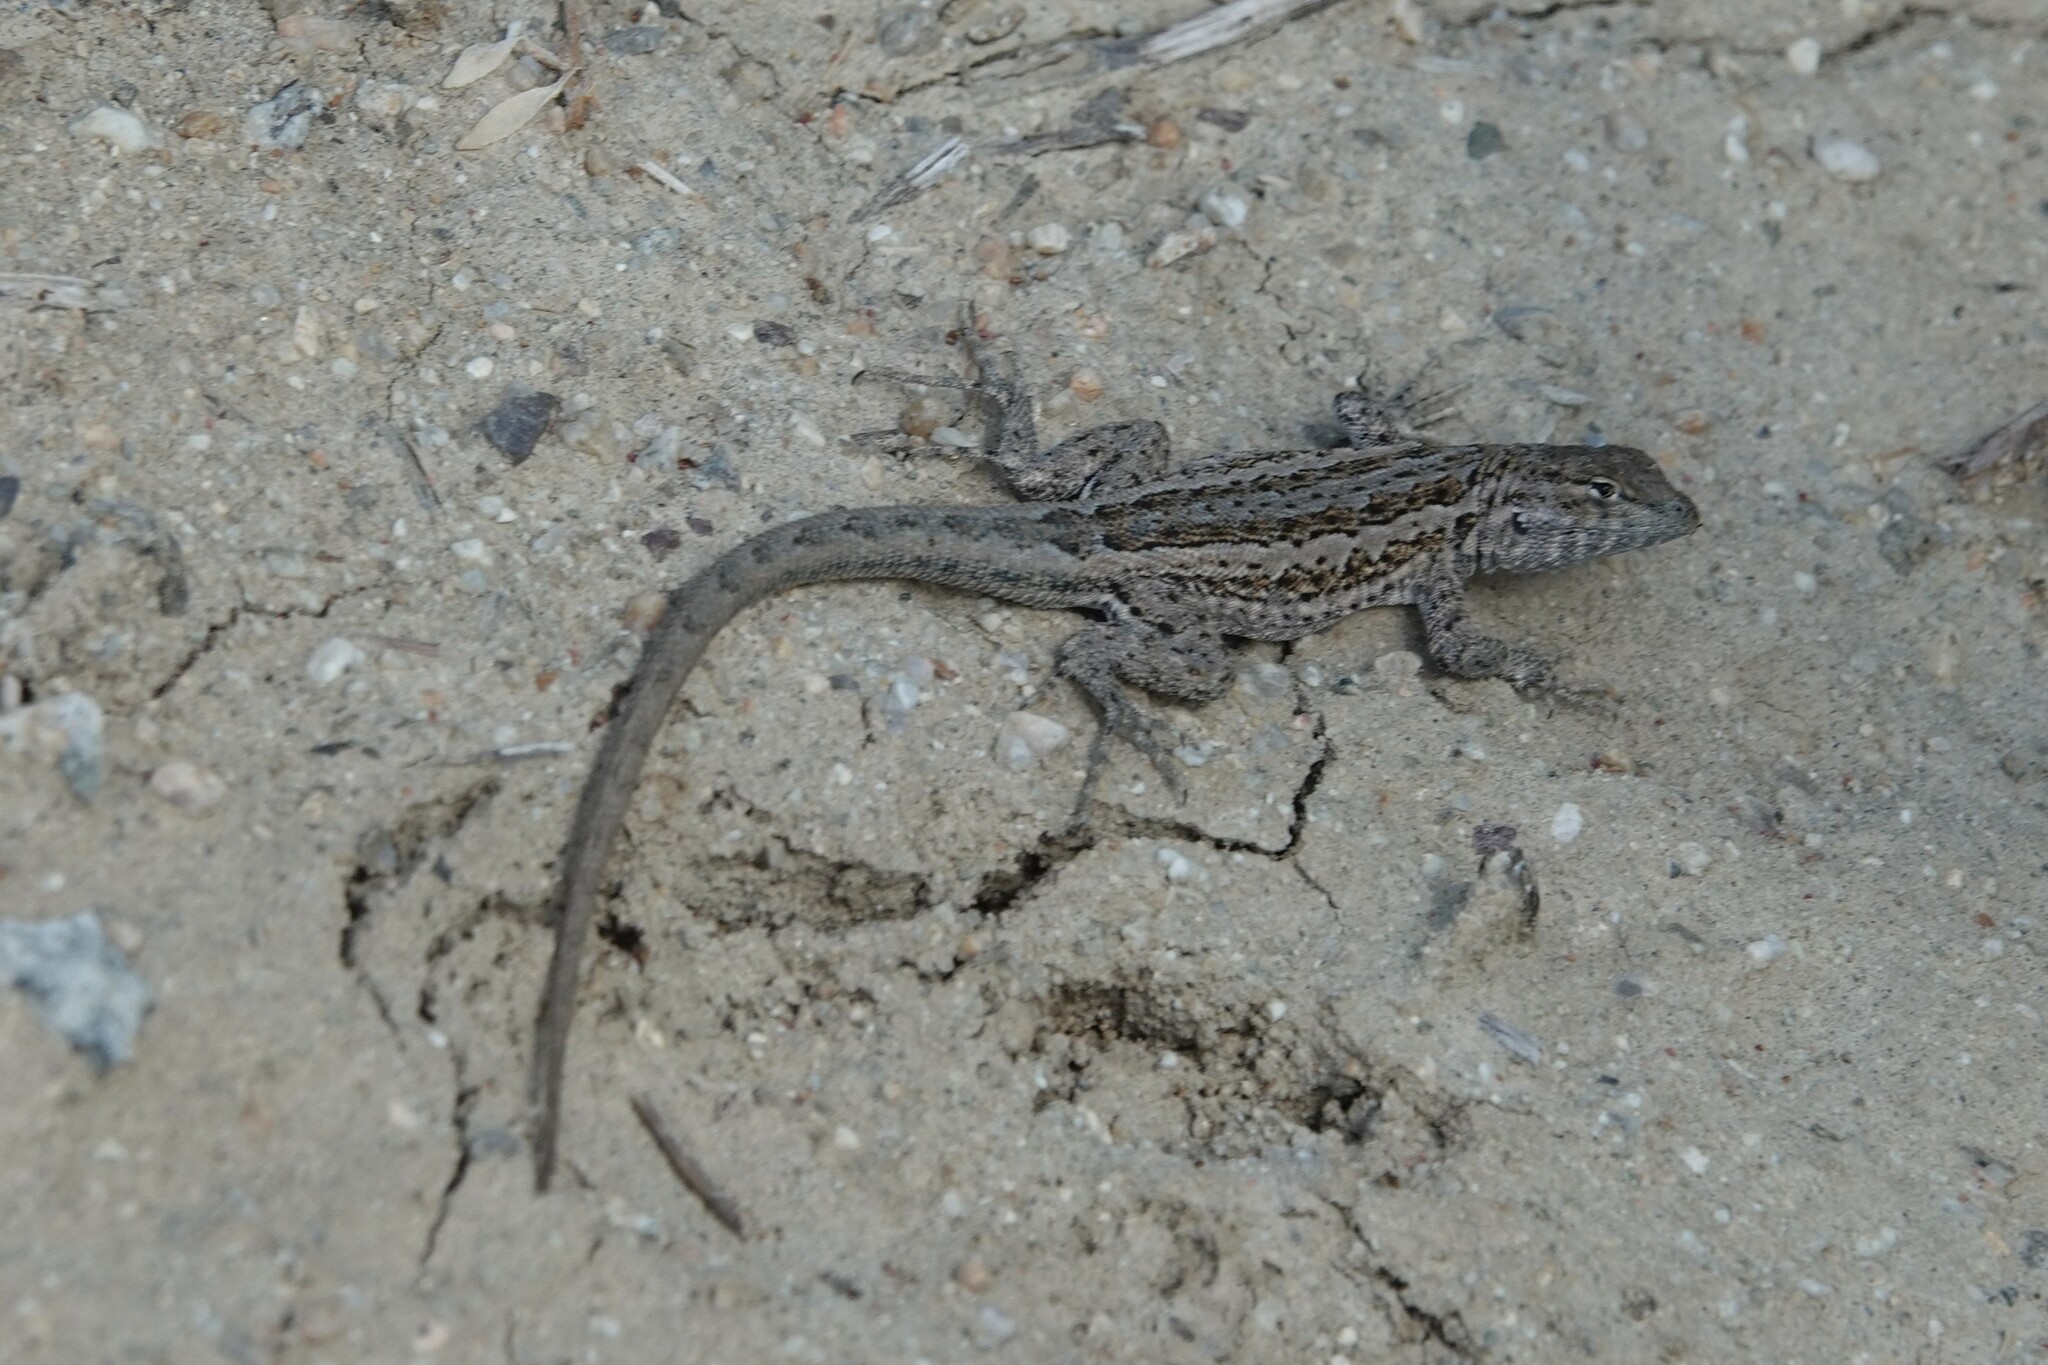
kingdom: Animalia
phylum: Chordata
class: Squamata
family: Phrynosomatidae
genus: Uta
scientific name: Uta stansburiana
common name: Side-blotched lizard
